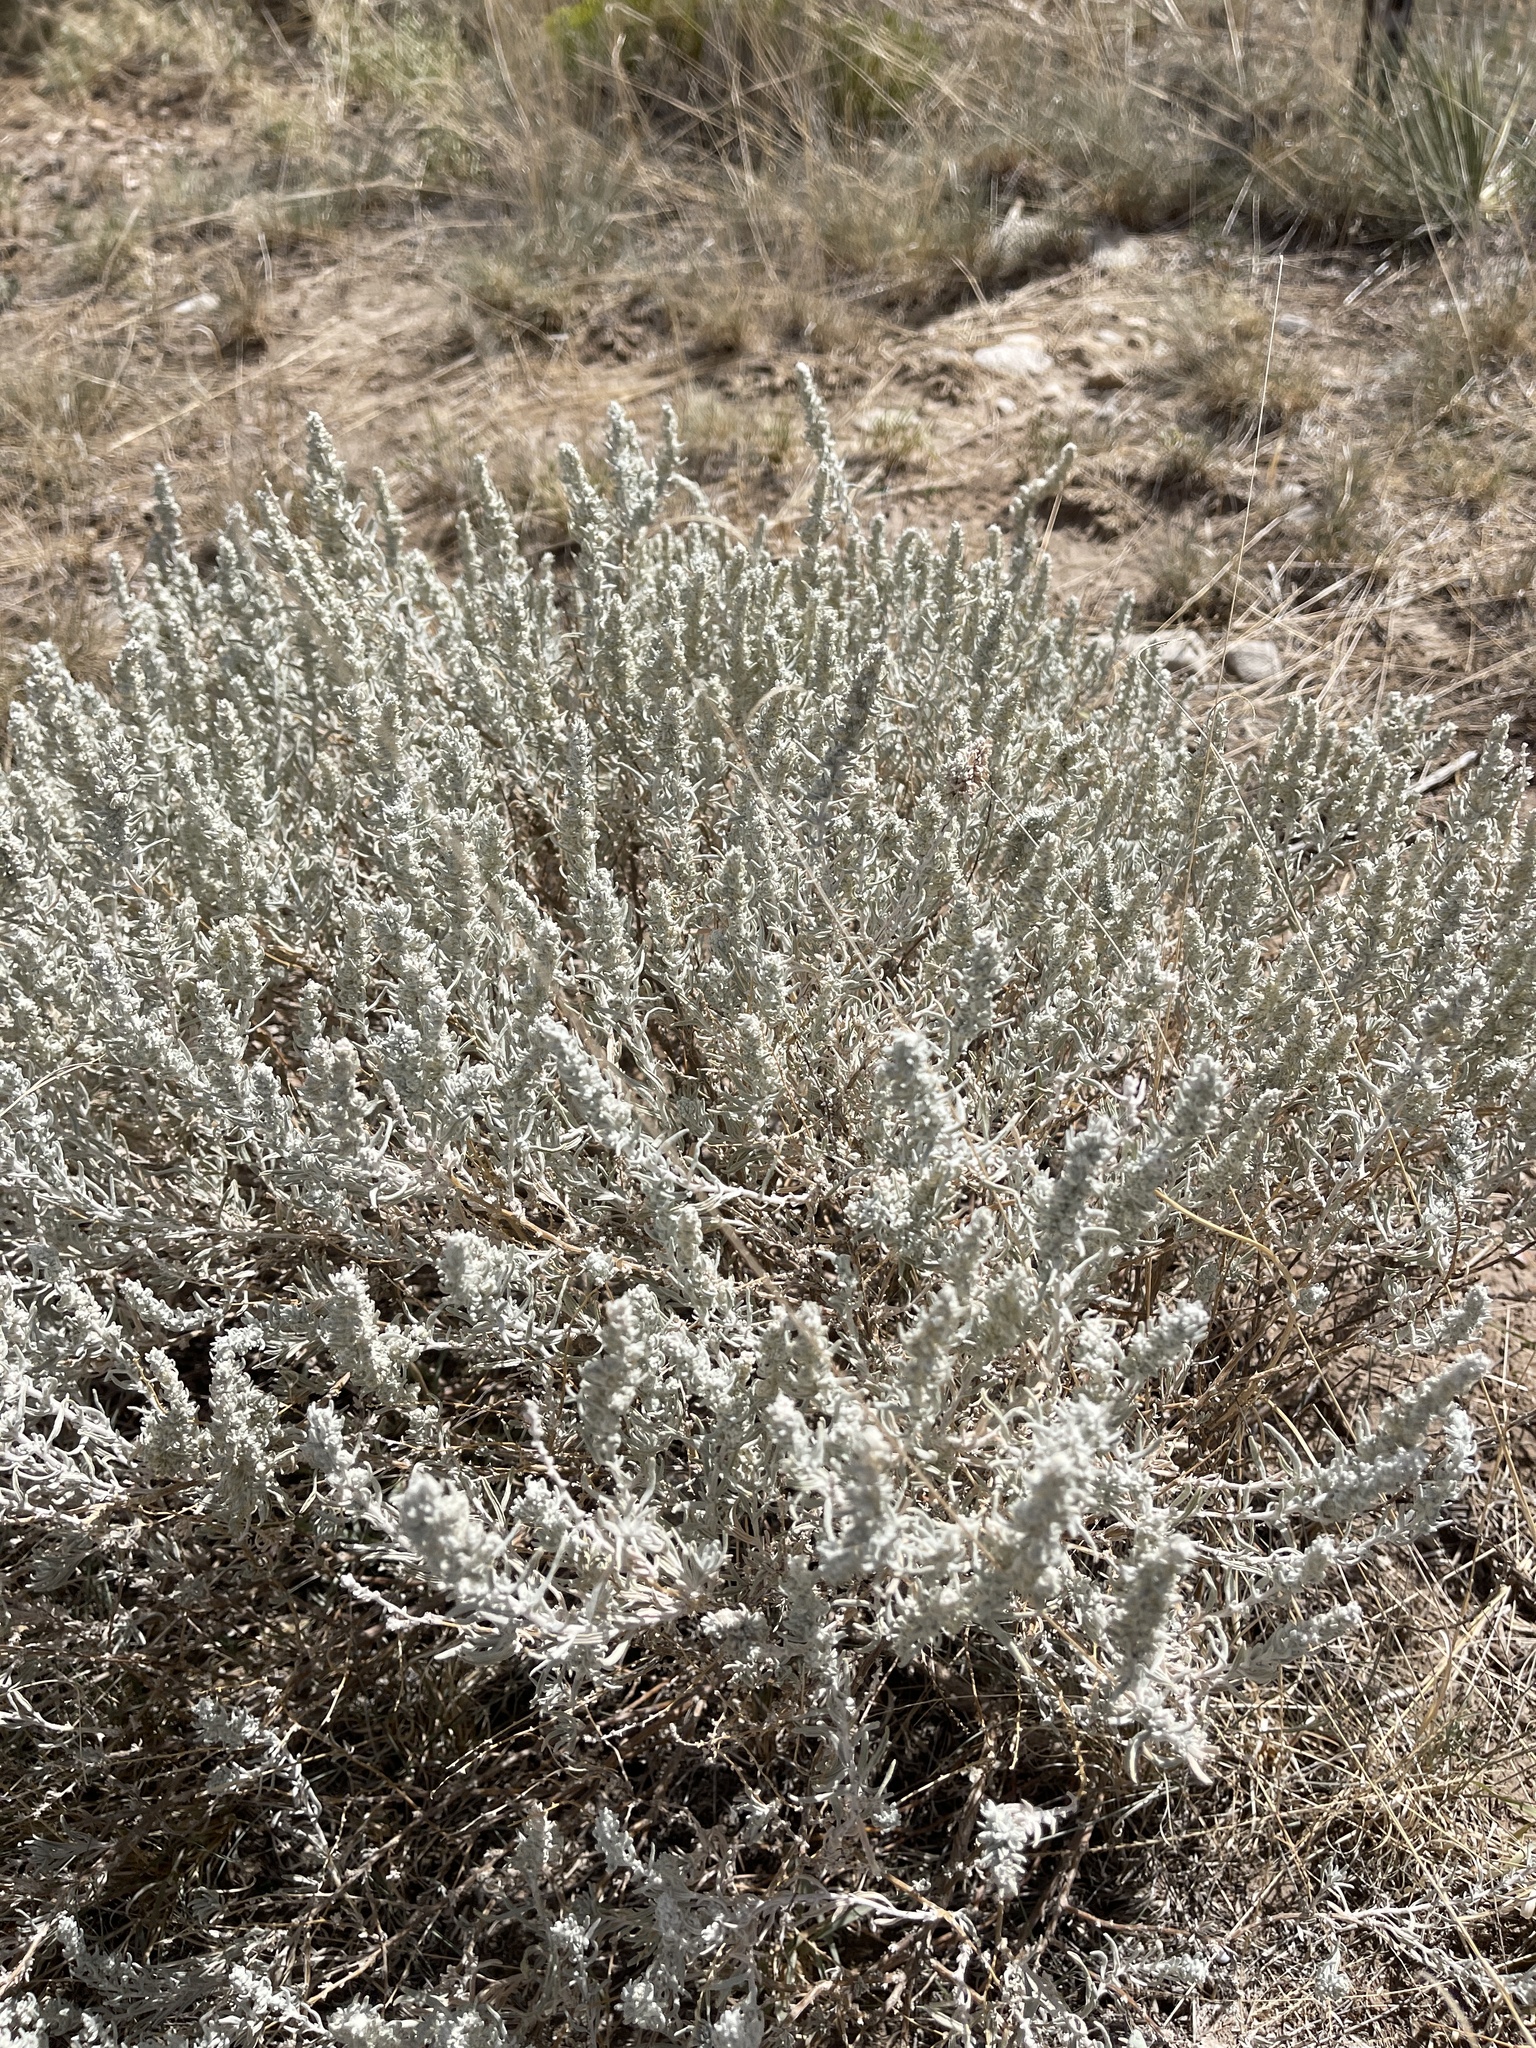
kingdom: Plantae
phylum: Tracheophyta
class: Magnoliopsida
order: Caryophyllales
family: Amaranthaceae
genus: Krascheninnikovia
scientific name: Krascheninnikovia lanata
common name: Winterfat
